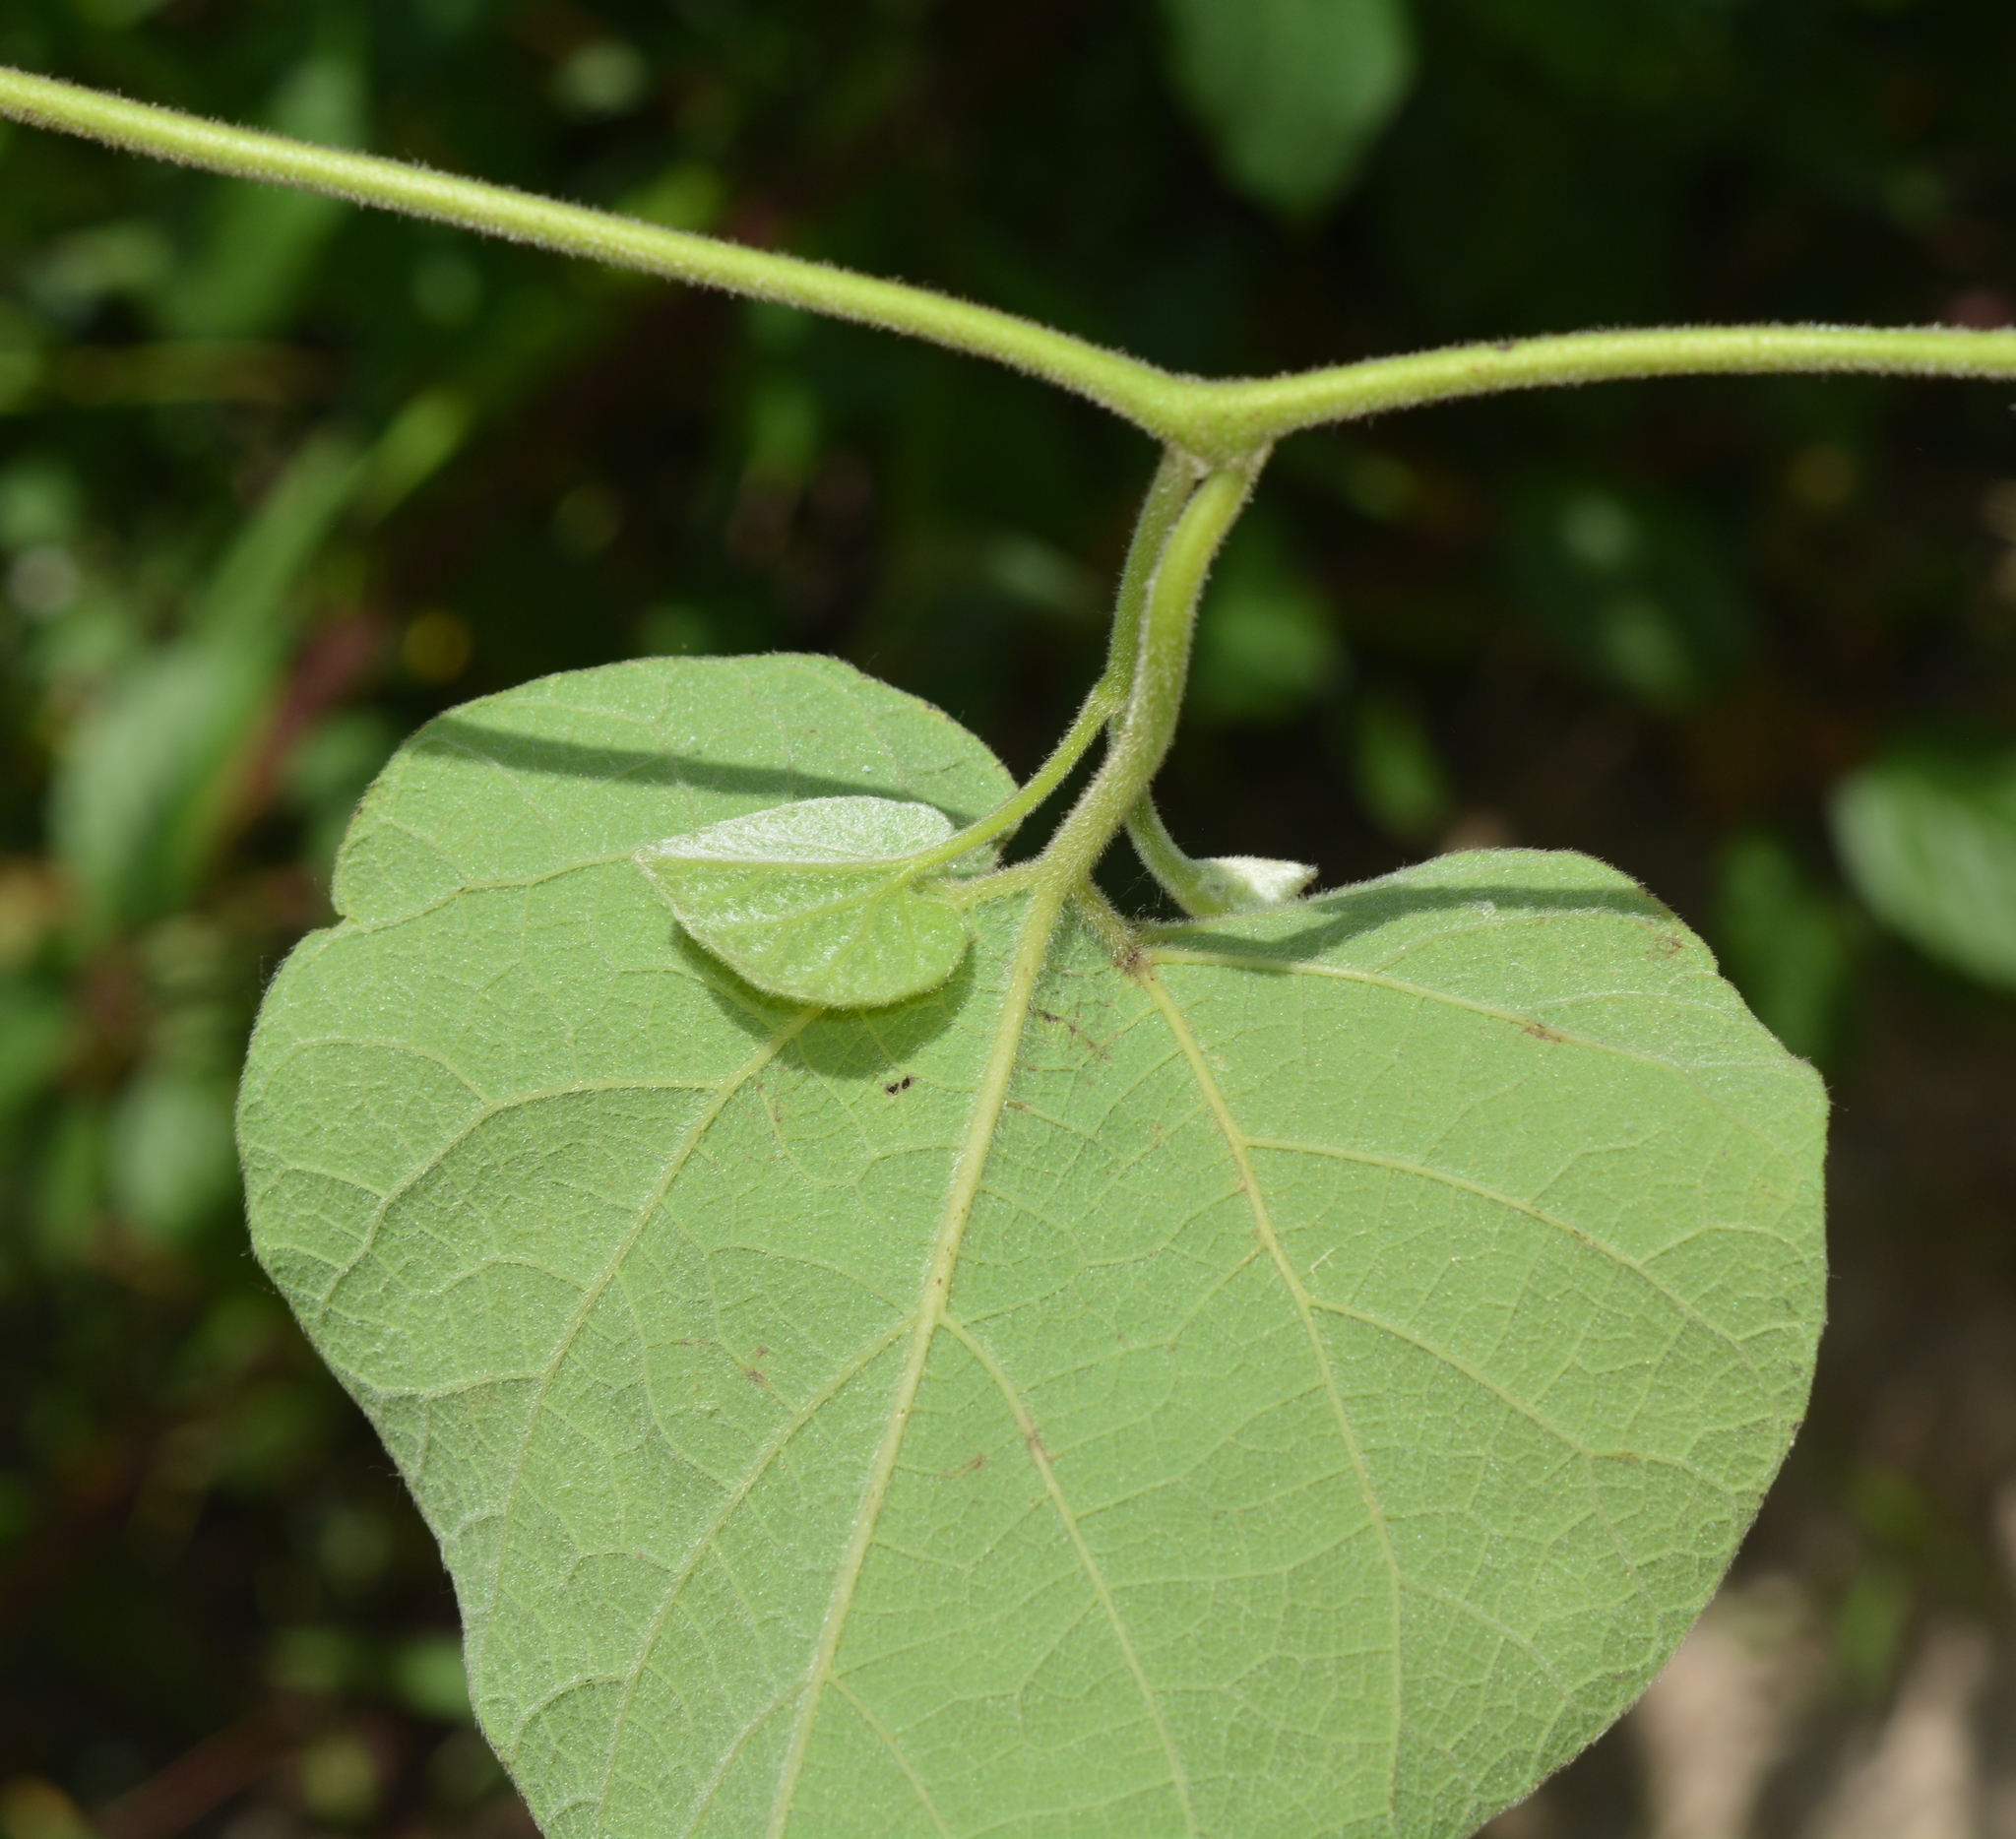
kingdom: Plantae
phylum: Tracheophyta
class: Magnoliopsida
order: Piperales
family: Aristolochiaceae
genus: Isotrema
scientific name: Isotrema tomentosum
